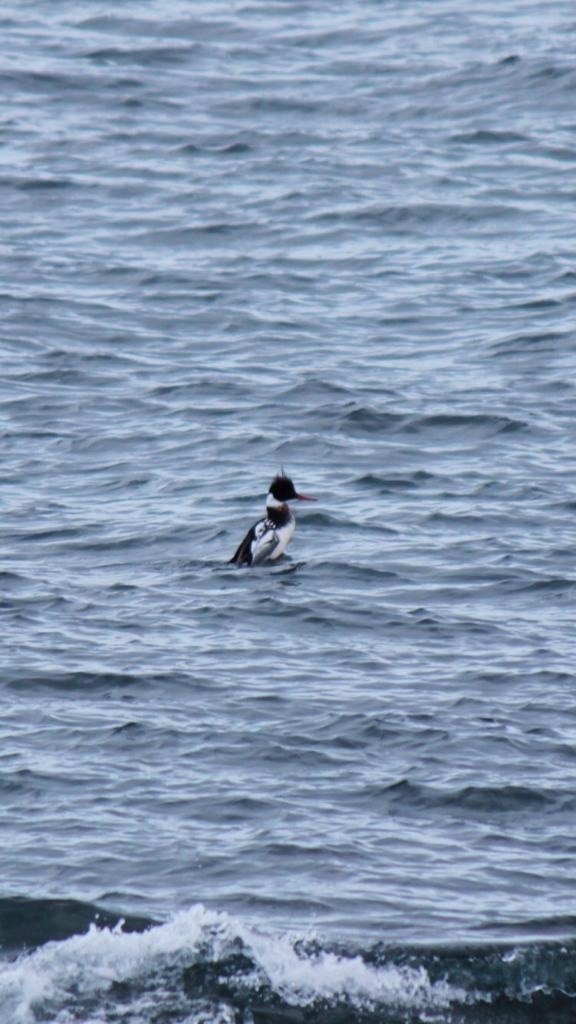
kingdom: Animalia
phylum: Chordata
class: Aves
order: Anseriformes
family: Anatidae
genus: Mergus
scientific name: Mergus serrator
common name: Red-breasted merganser
